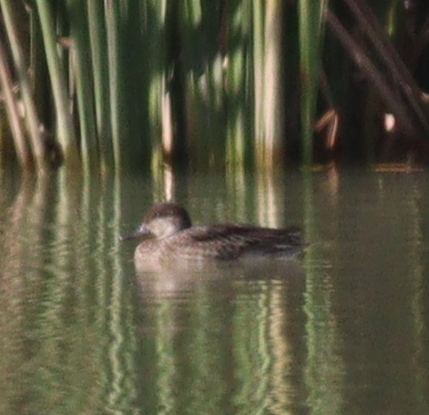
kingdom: Animalia
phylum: Chordata
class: Aves
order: Anseriformes
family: Anatidae
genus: Anas
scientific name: Anas crecca
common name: Eurasian teal
